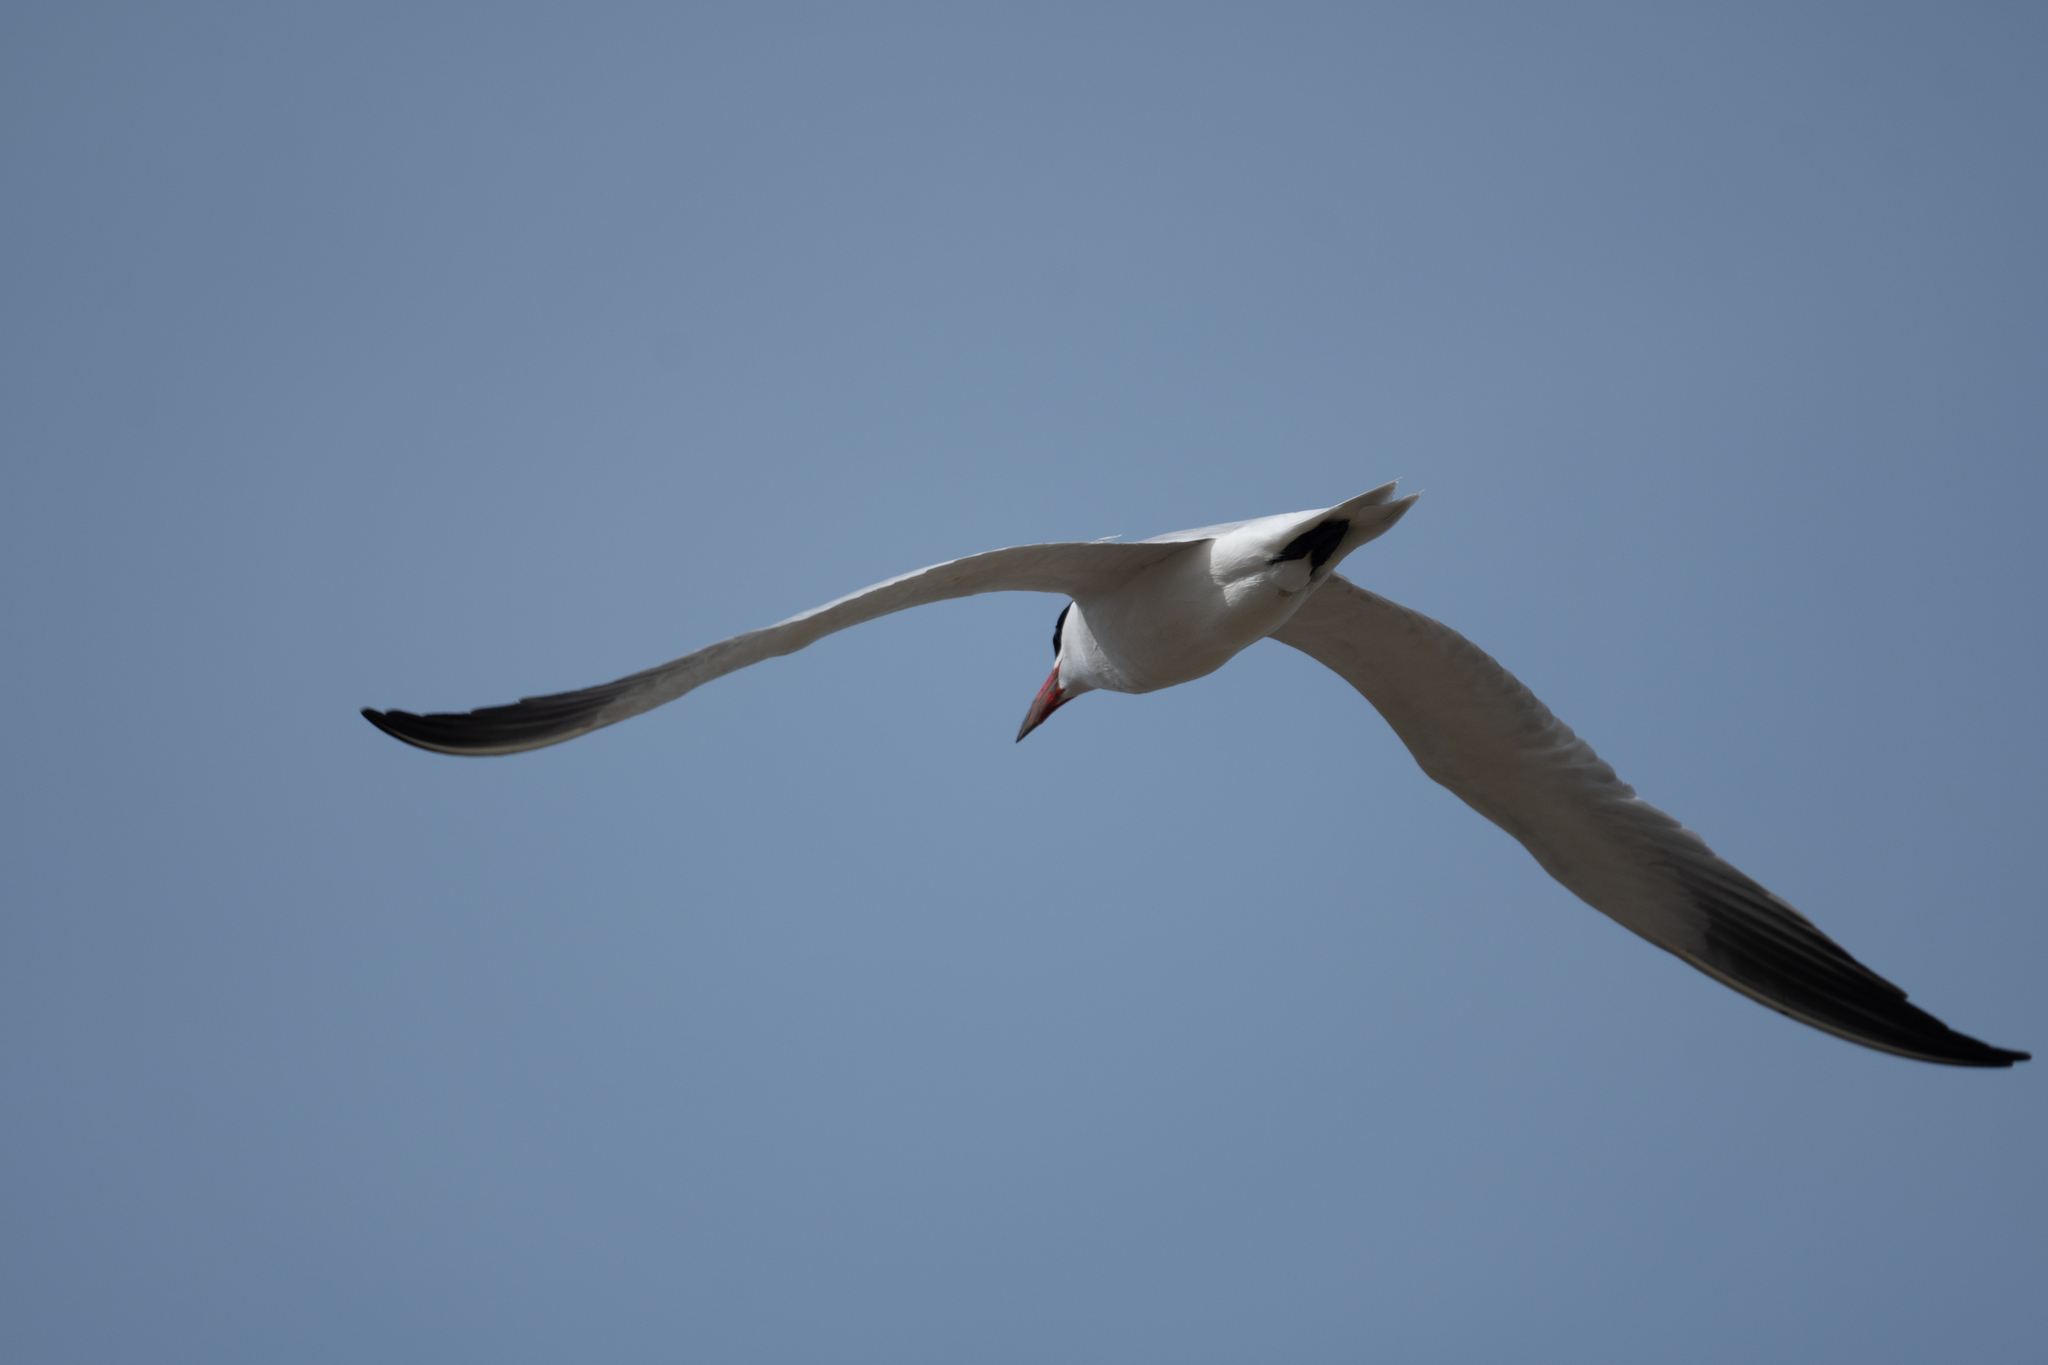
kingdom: Animalia
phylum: Chordata
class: Aves
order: Charadriiformes
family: Laridae
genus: Hydroprogne
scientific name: Hydroprogne caspia
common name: Caspian tern
